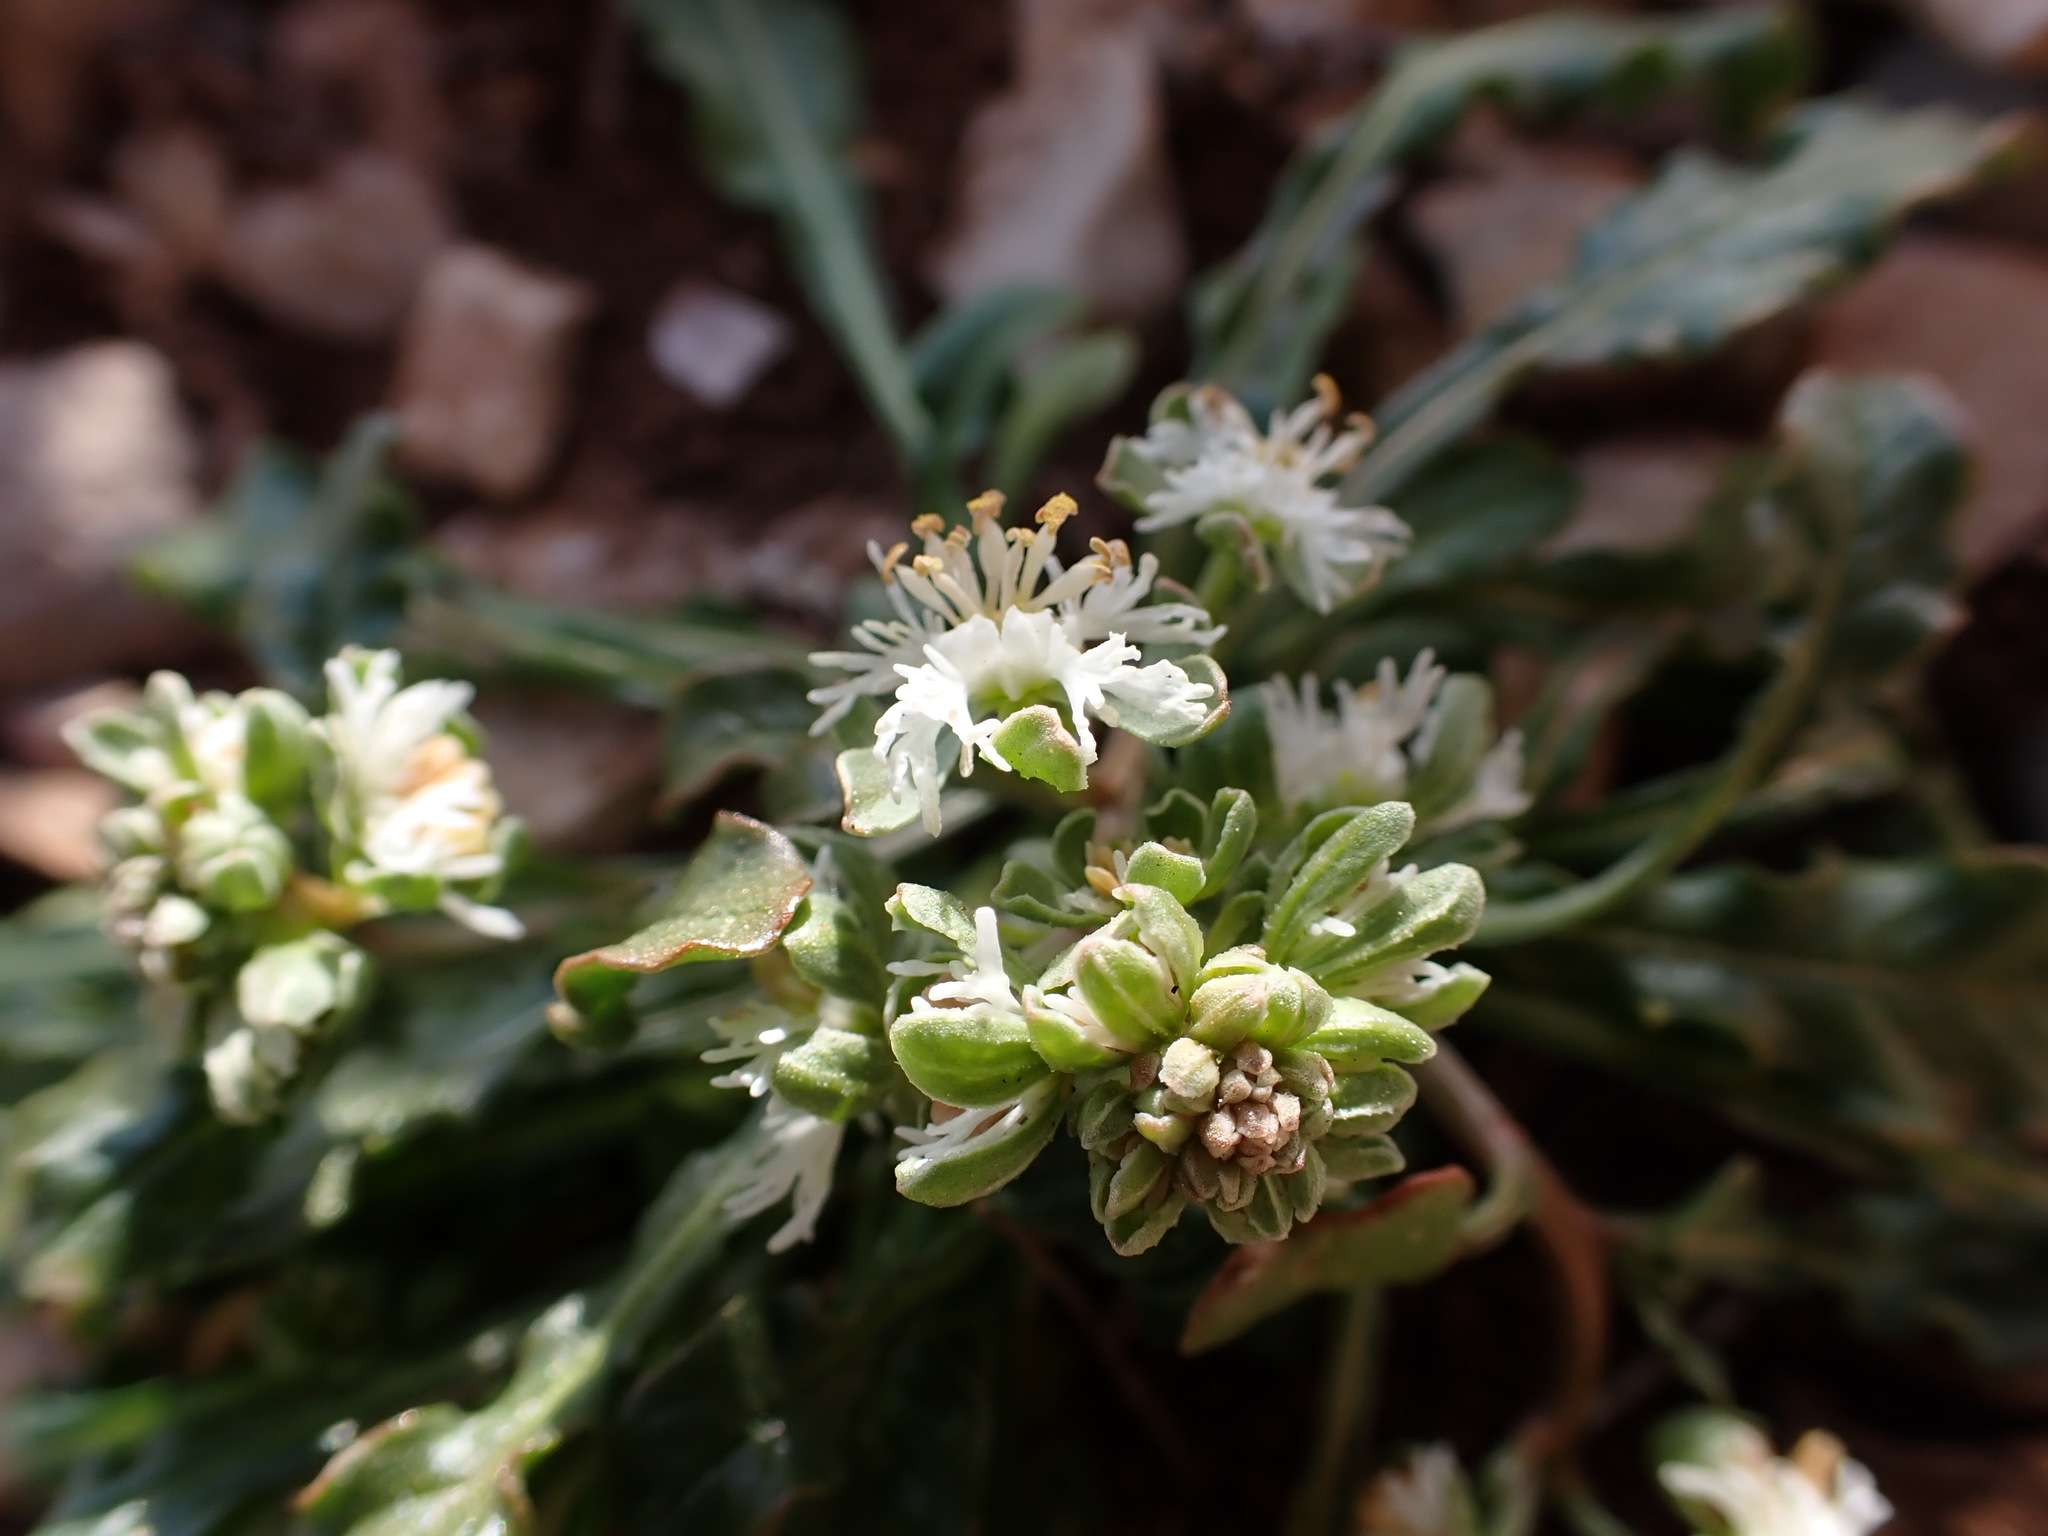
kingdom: Plantae
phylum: Tracheophyta
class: Magnoliopsida
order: Brassicales
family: Resedaceae
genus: Reseda
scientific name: Reseda phyteuma
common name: Corn mignonette
